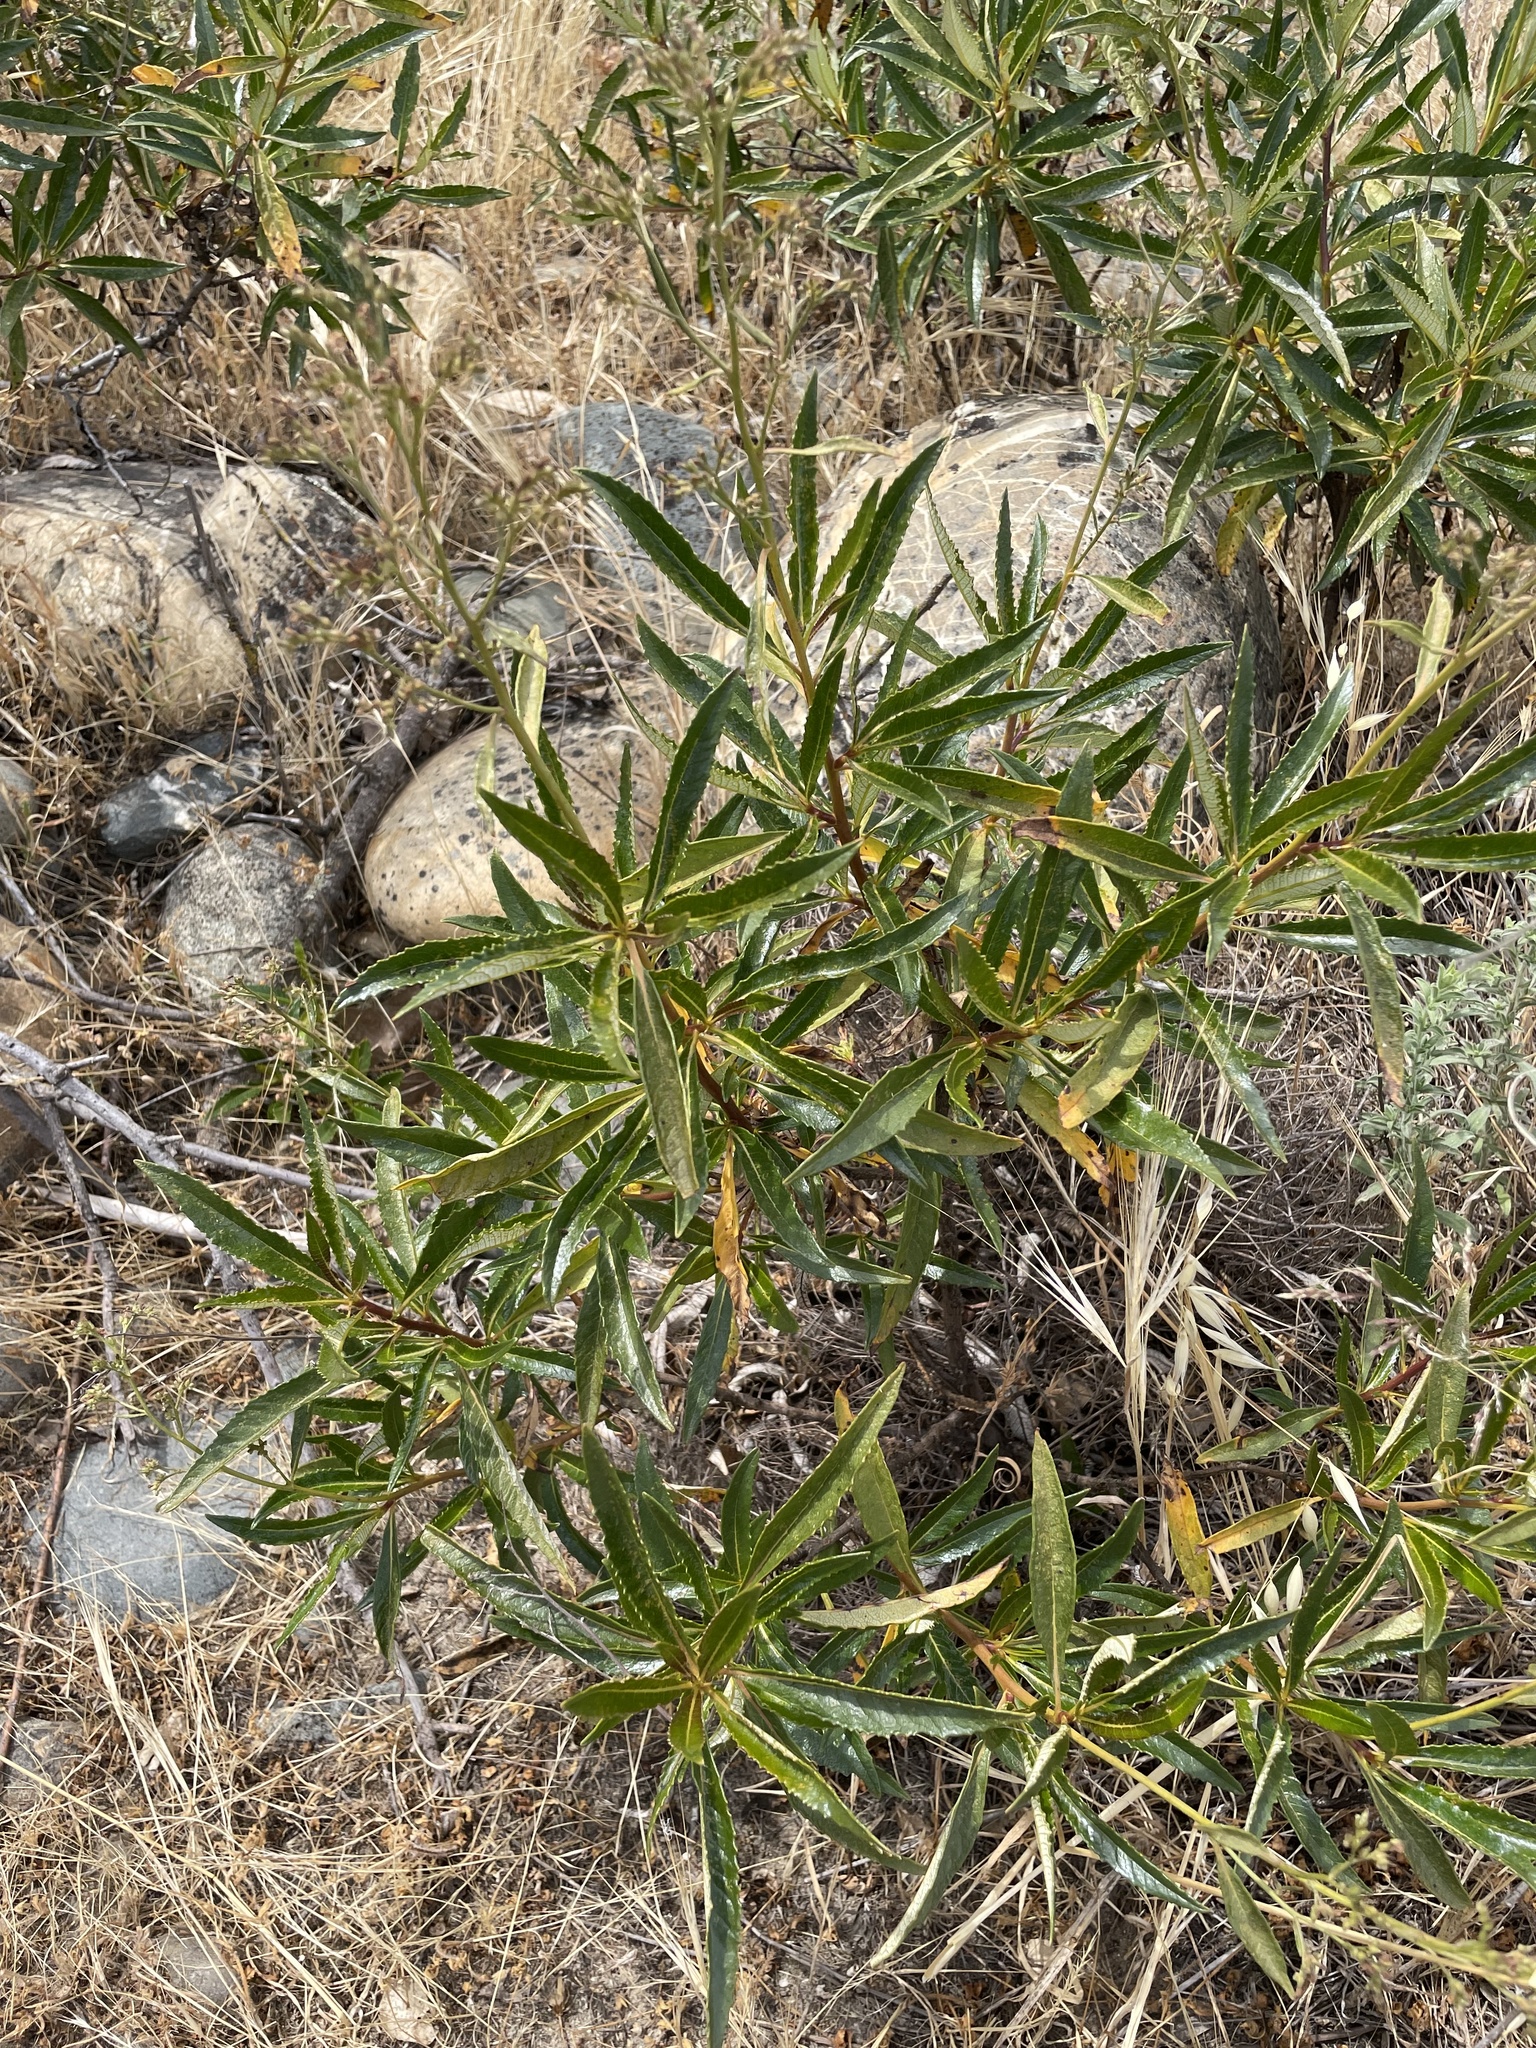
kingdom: Plantae
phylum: Tracheophyta
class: Magnoliopsida
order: Boraginales
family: Namaceae
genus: Eriodictyon
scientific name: Eriodictyon californicum
